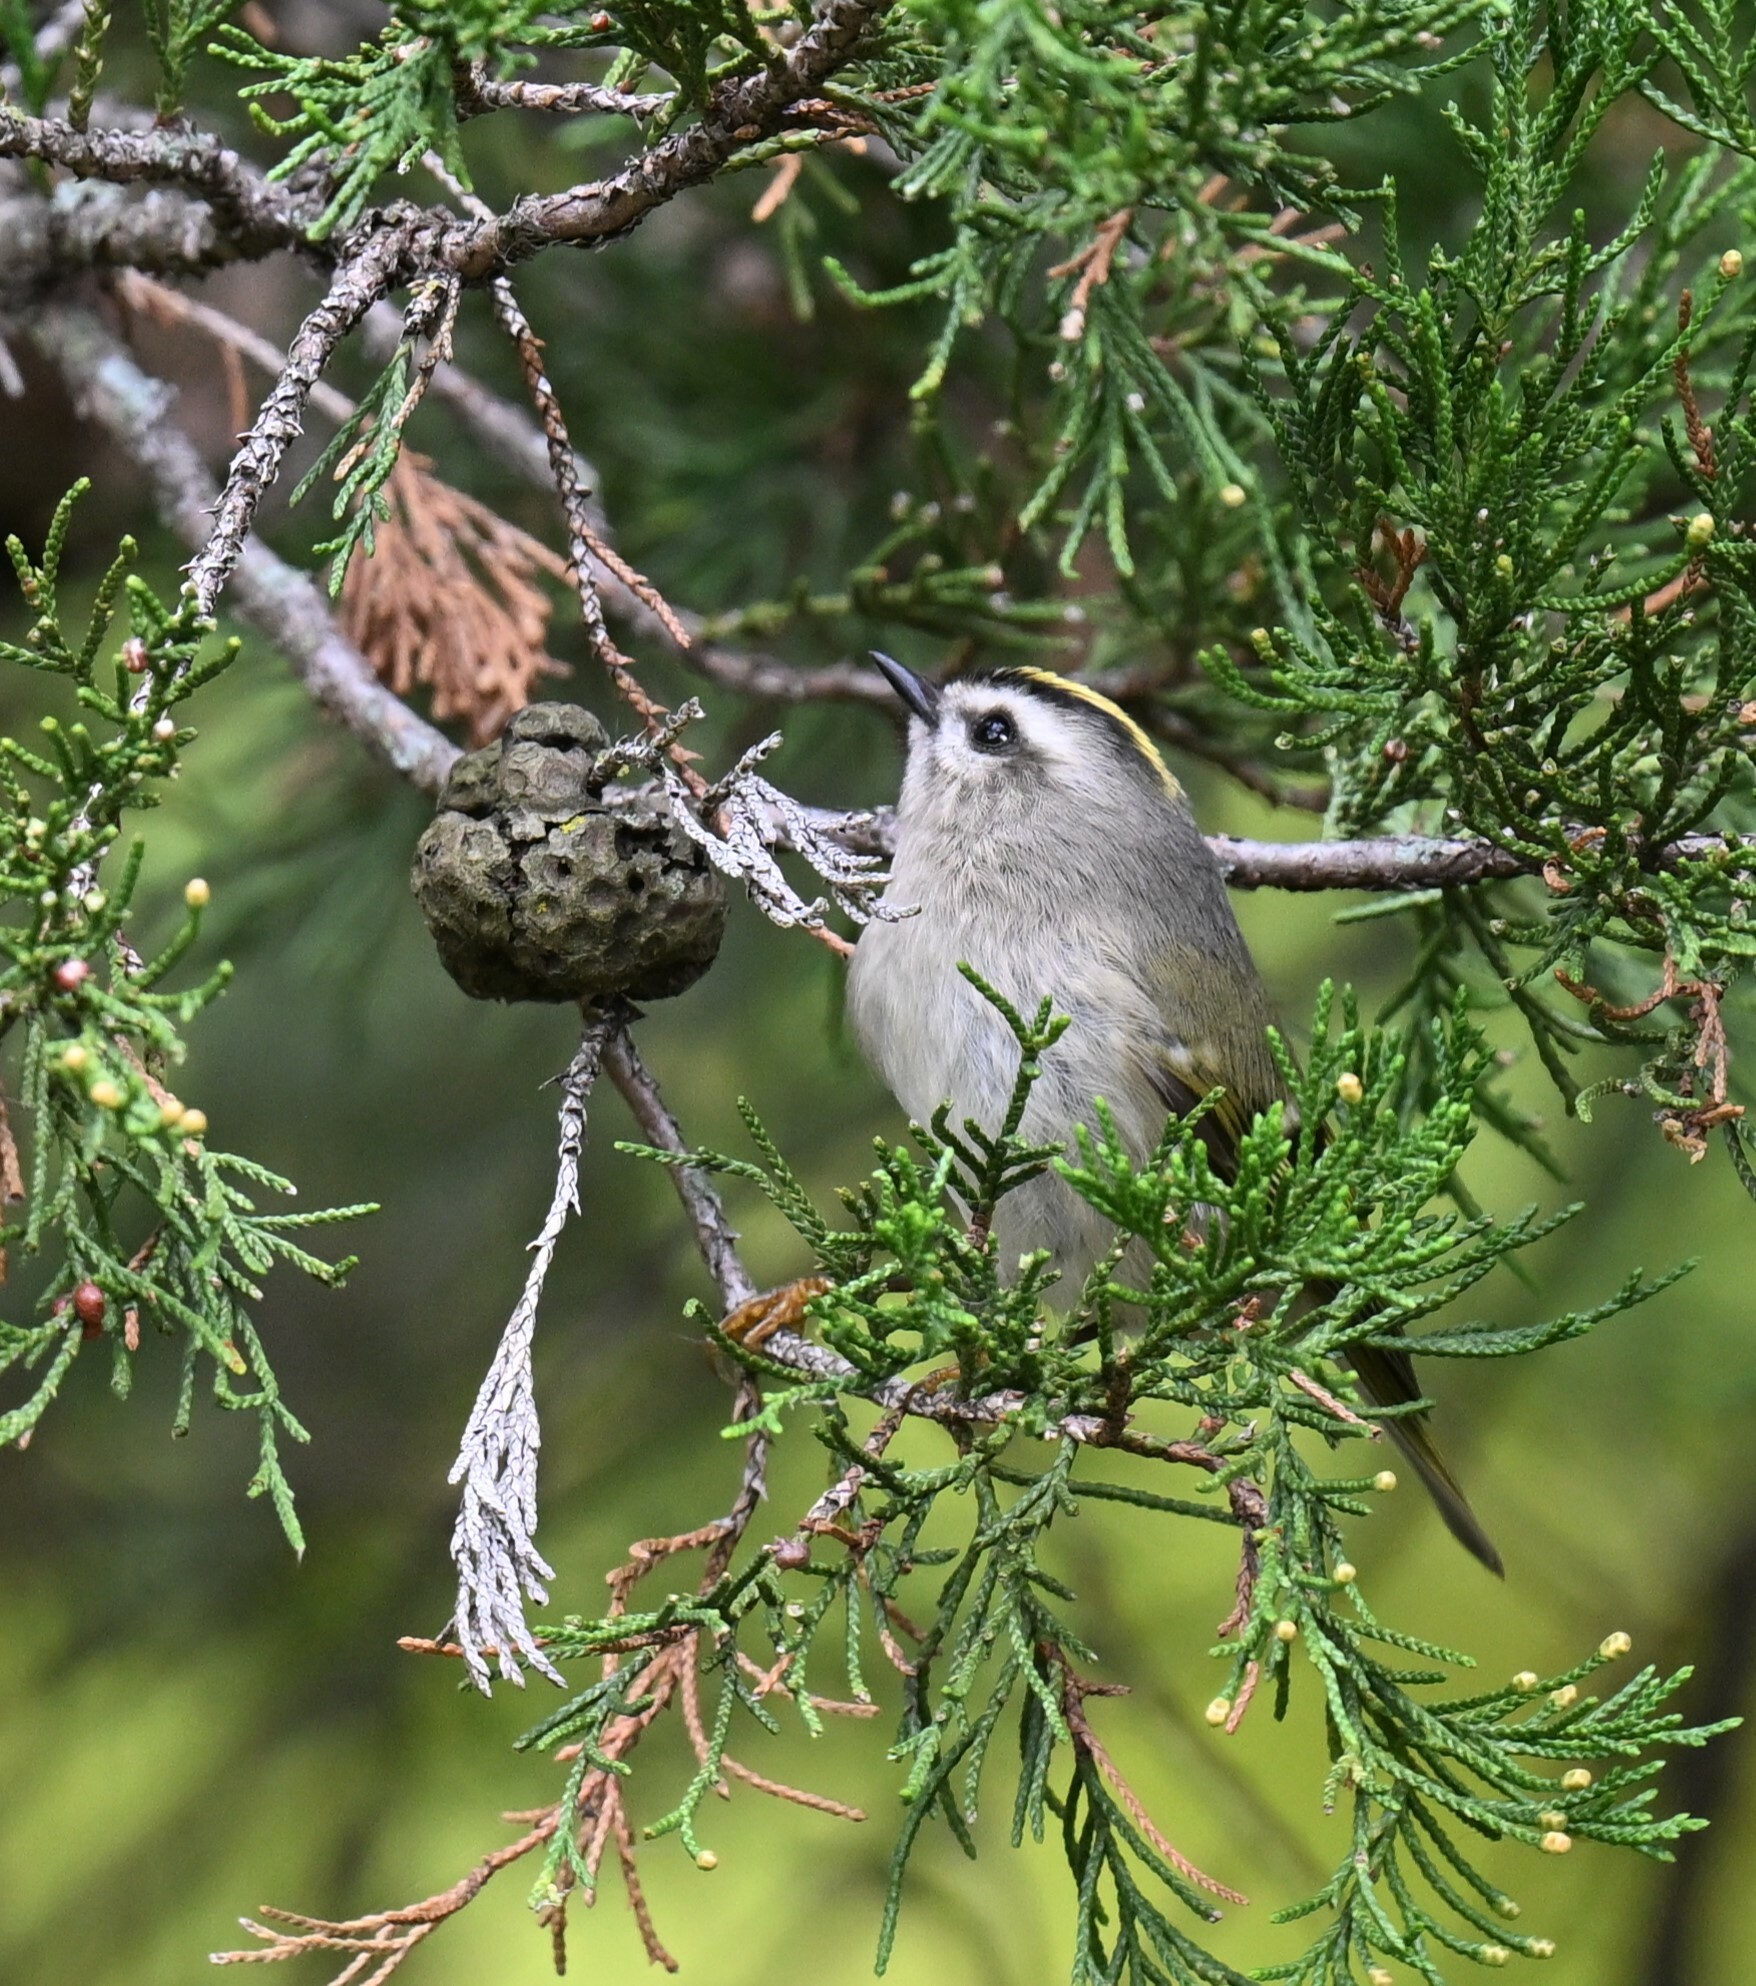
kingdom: Animalia
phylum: Chordata
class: Aves
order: Passeriformes
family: Regulidae
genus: Regulus
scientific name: Regulus satrapa
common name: Golden-crowned kinglet
